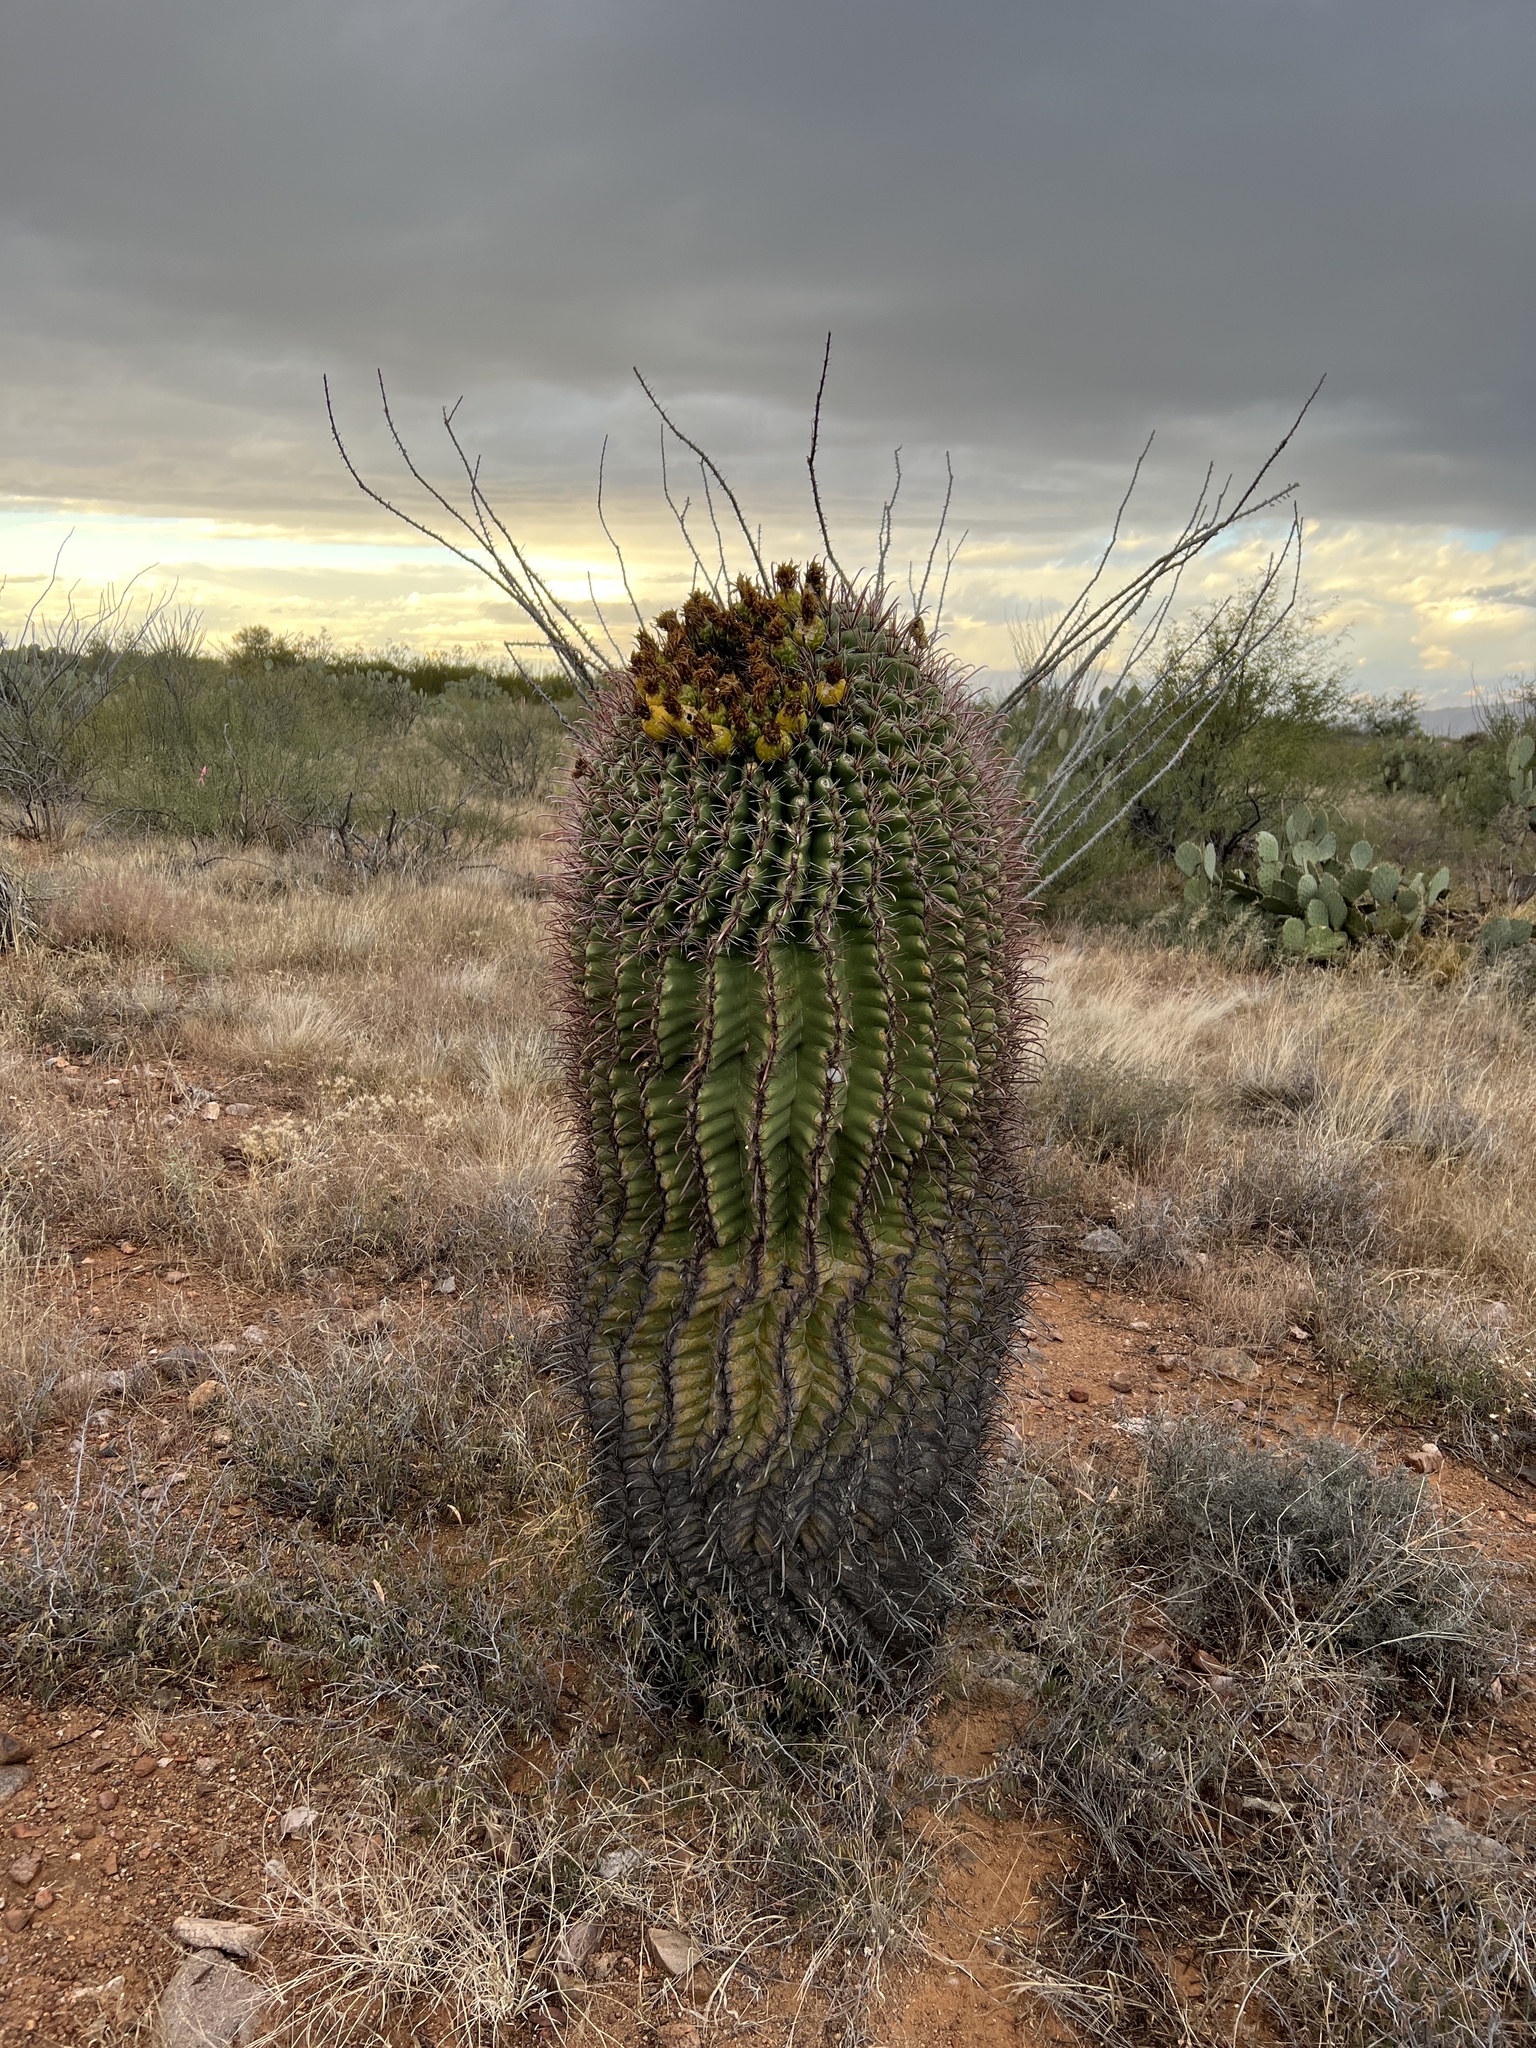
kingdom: Plantae
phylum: Tracheophyta
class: Magnoliopsida
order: Caryophyllales
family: Cactaceae
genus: Ferocactus
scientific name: Ferocactus wislizeni
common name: Candy barrel cactus
